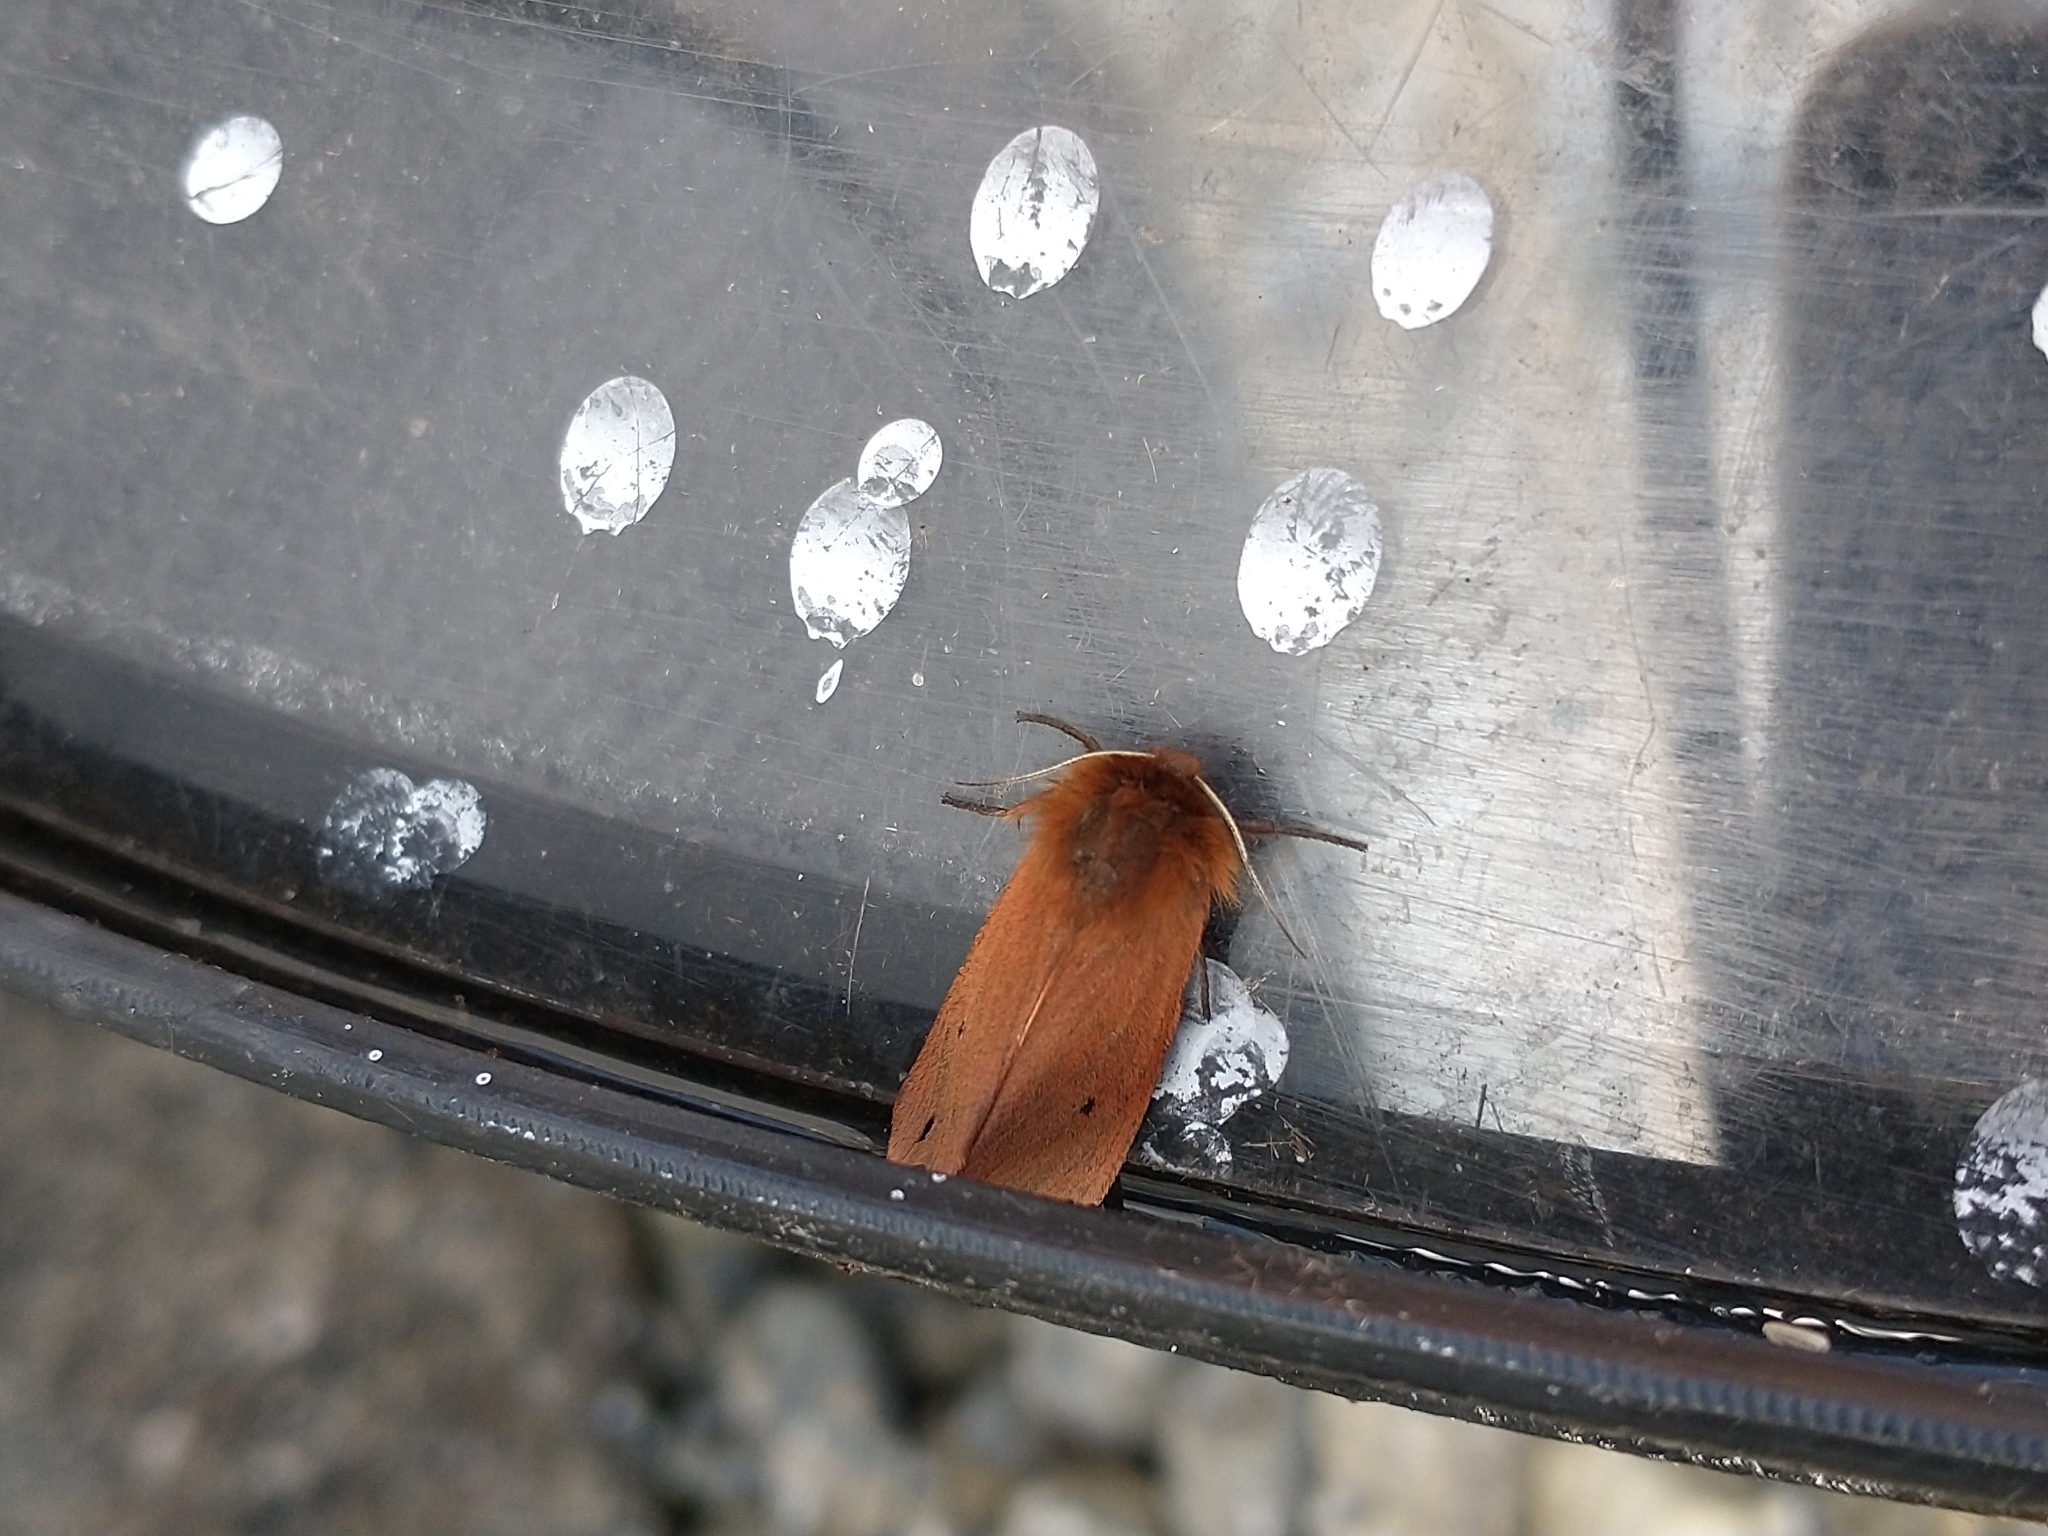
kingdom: Animalia
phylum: Arthropoda
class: Insecta
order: Lepidoptera
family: Erebidae
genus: Phragmatobia
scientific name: Phragmatobia fuliginosa
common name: Ruby tiger
